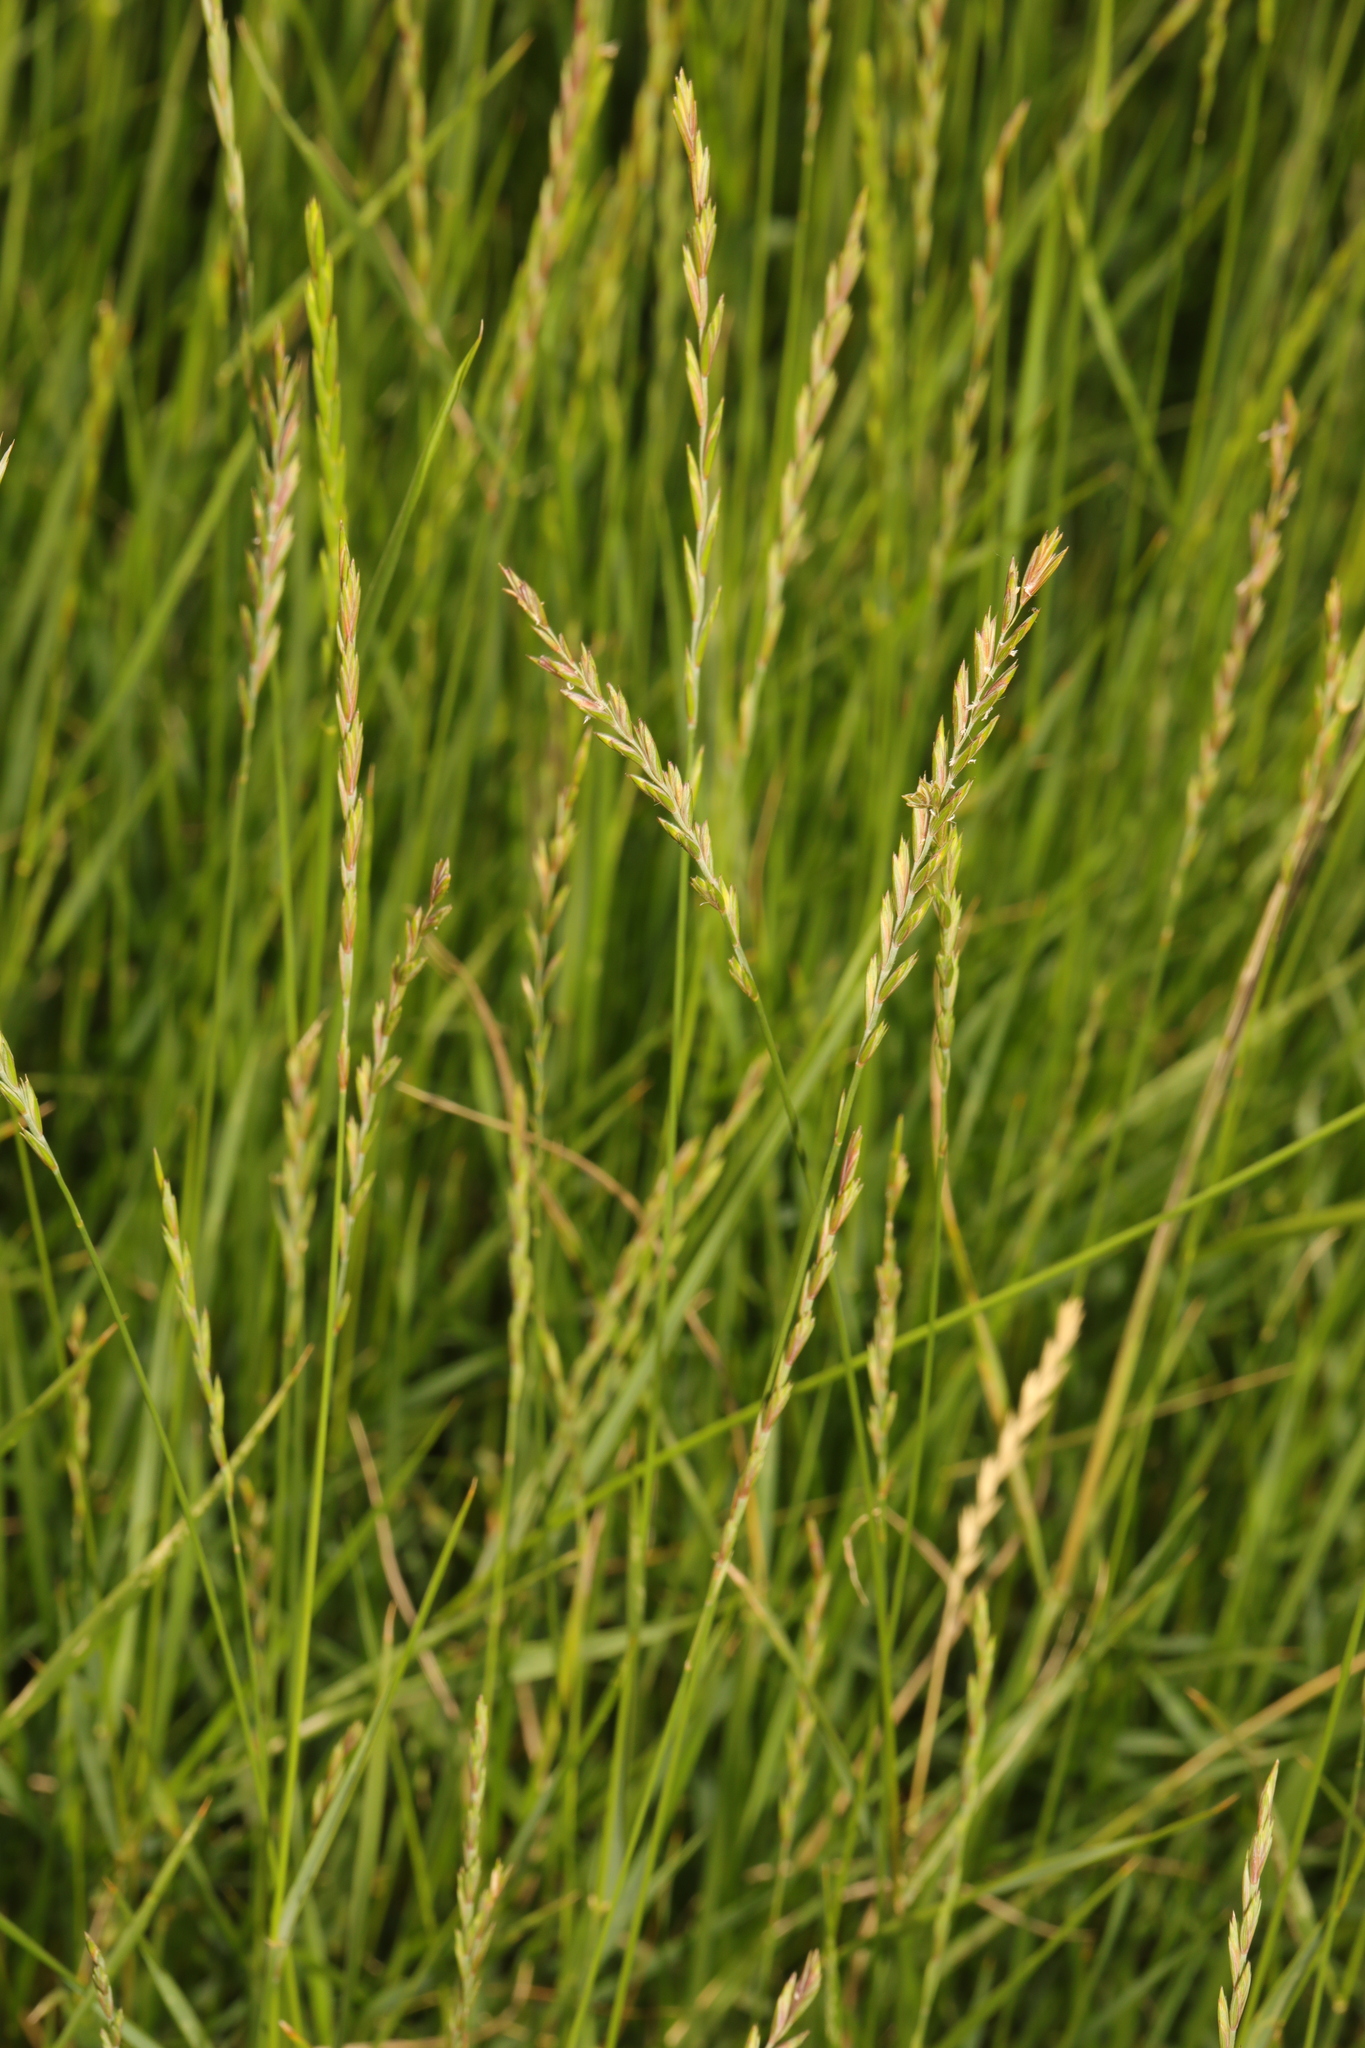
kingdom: Plantae
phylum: Tracheophyta
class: Liliopsida
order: Poales
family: Poaceae
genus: Lolium
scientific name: Lolium perenne
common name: Perennial ryegrass
